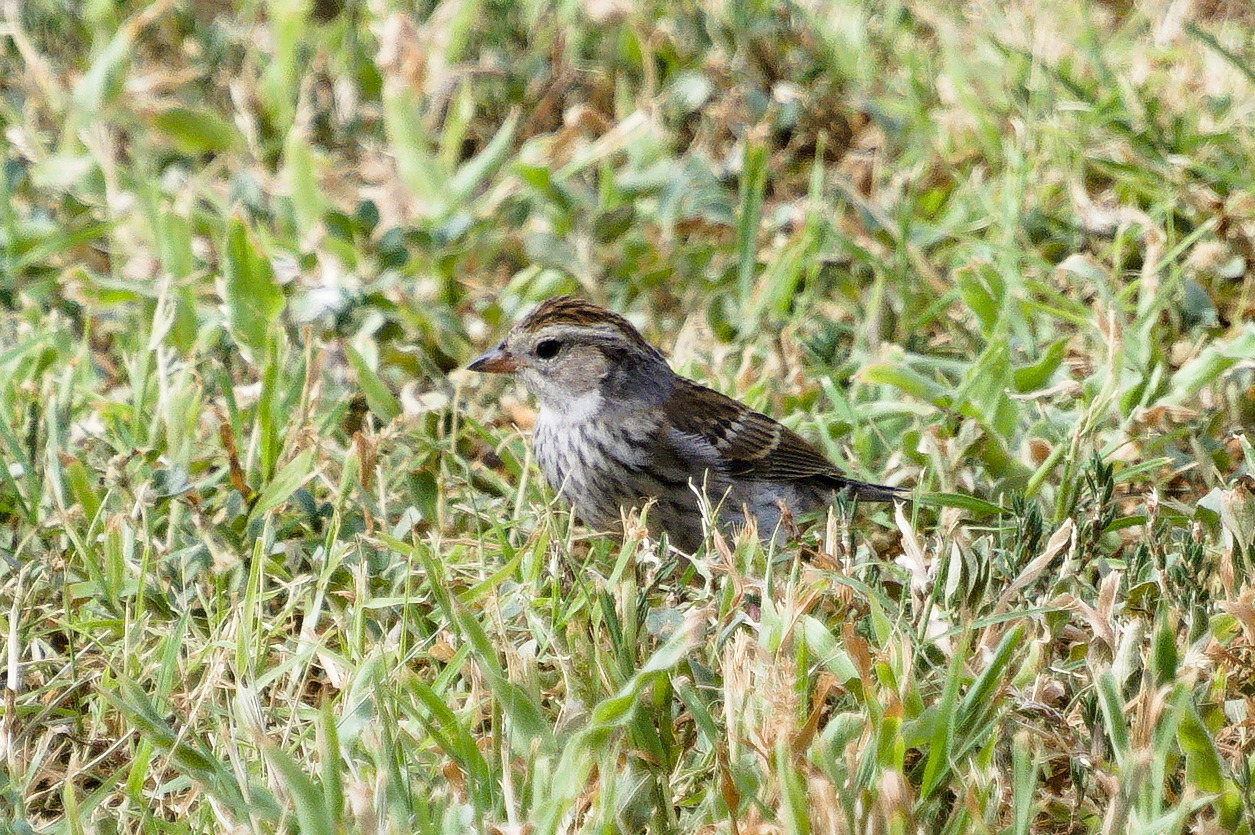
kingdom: Animalia
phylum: Chordata
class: Aves
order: Passeriformes
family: Passerellidae
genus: Spizella
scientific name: Spizella passerina
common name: Chipping sparrow
